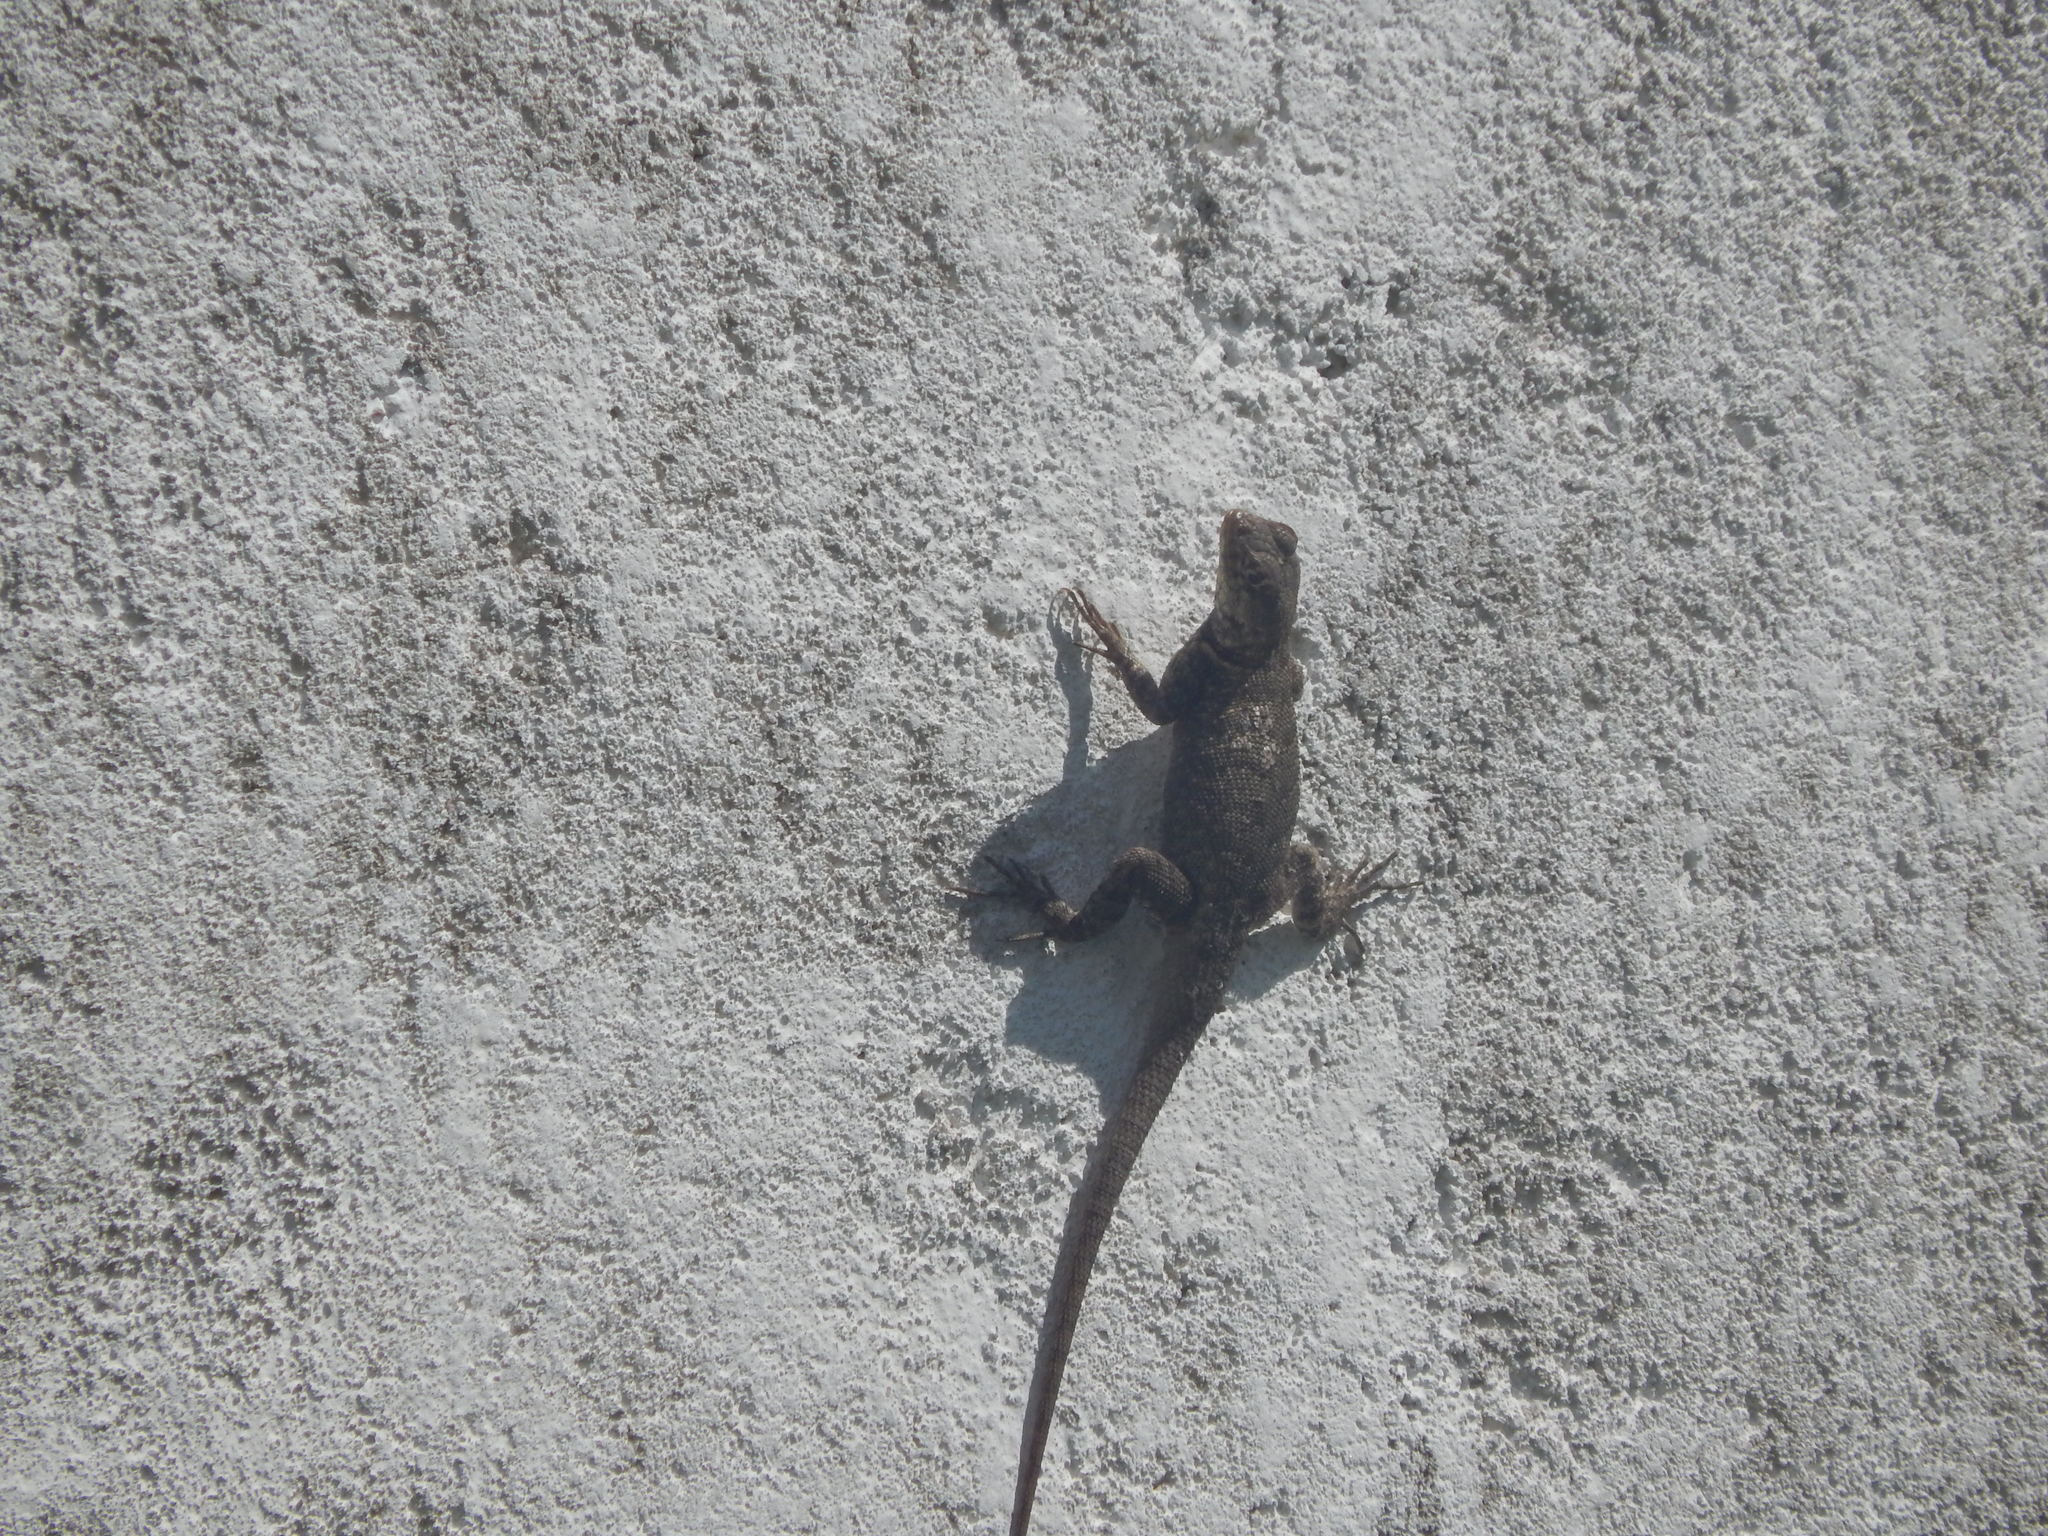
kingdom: Animalia
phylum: Chordata
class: Squamata
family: Tropiduridae
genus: Tropidurus
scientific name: Tropidurus hispidus
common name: Peters' lava lizard
